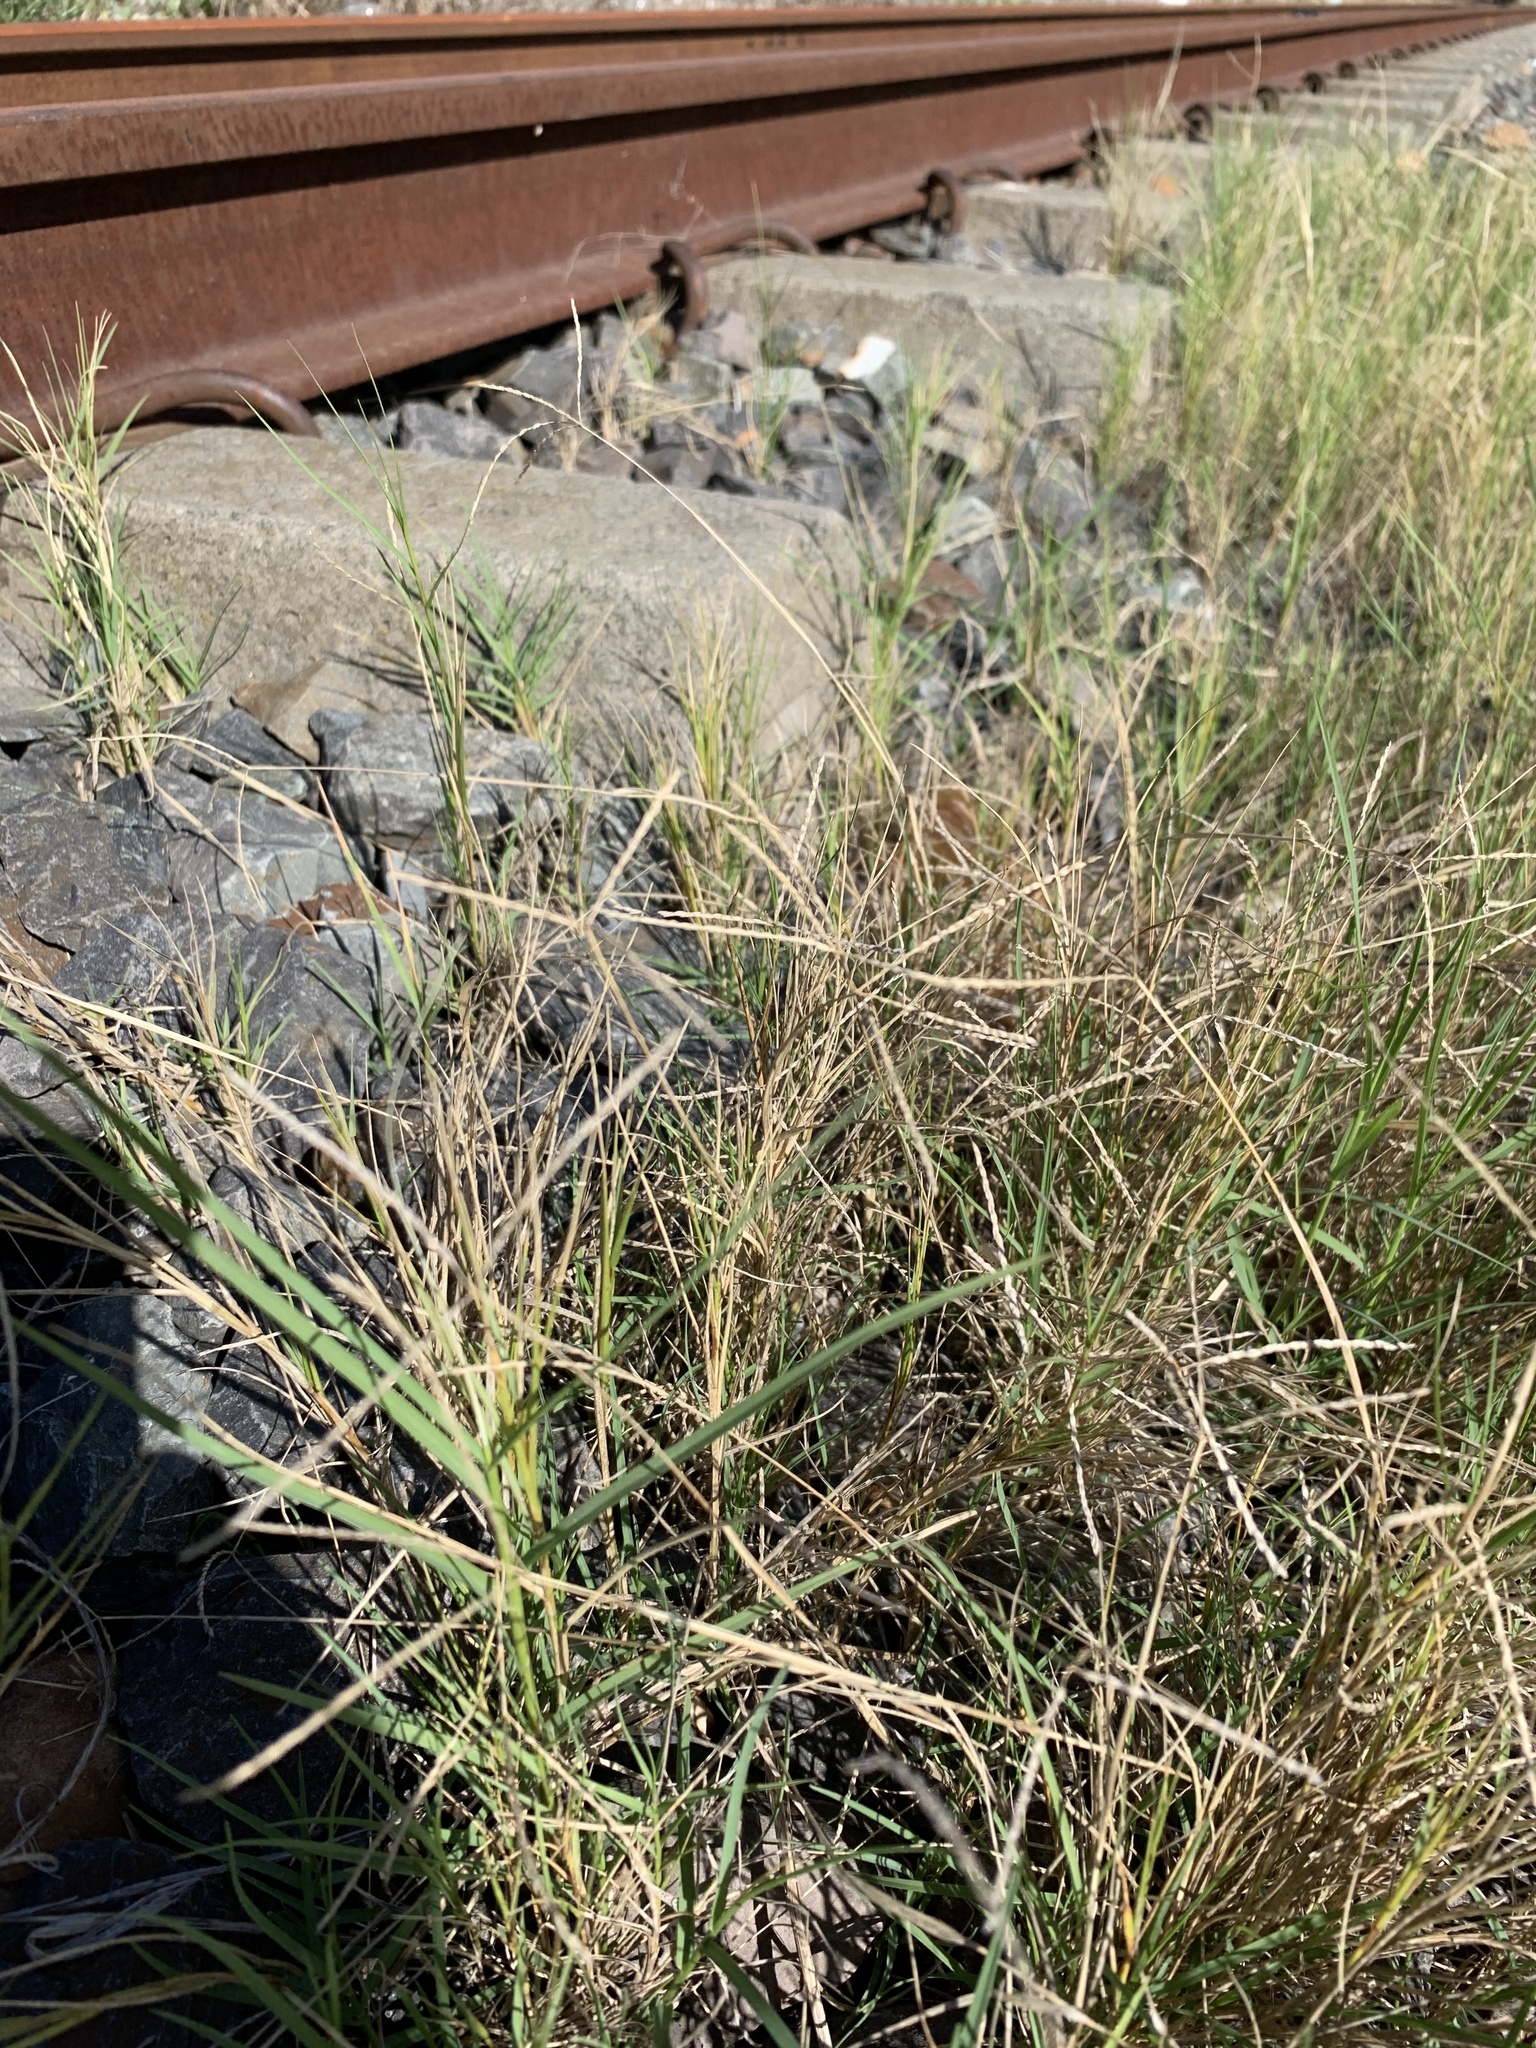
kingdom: Plantae
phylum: Tracheophyta
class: Liliopsida
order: Poales
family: Poaceae
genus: Cynodon
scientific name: Cynodon dactylon
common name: Bermuda grass
